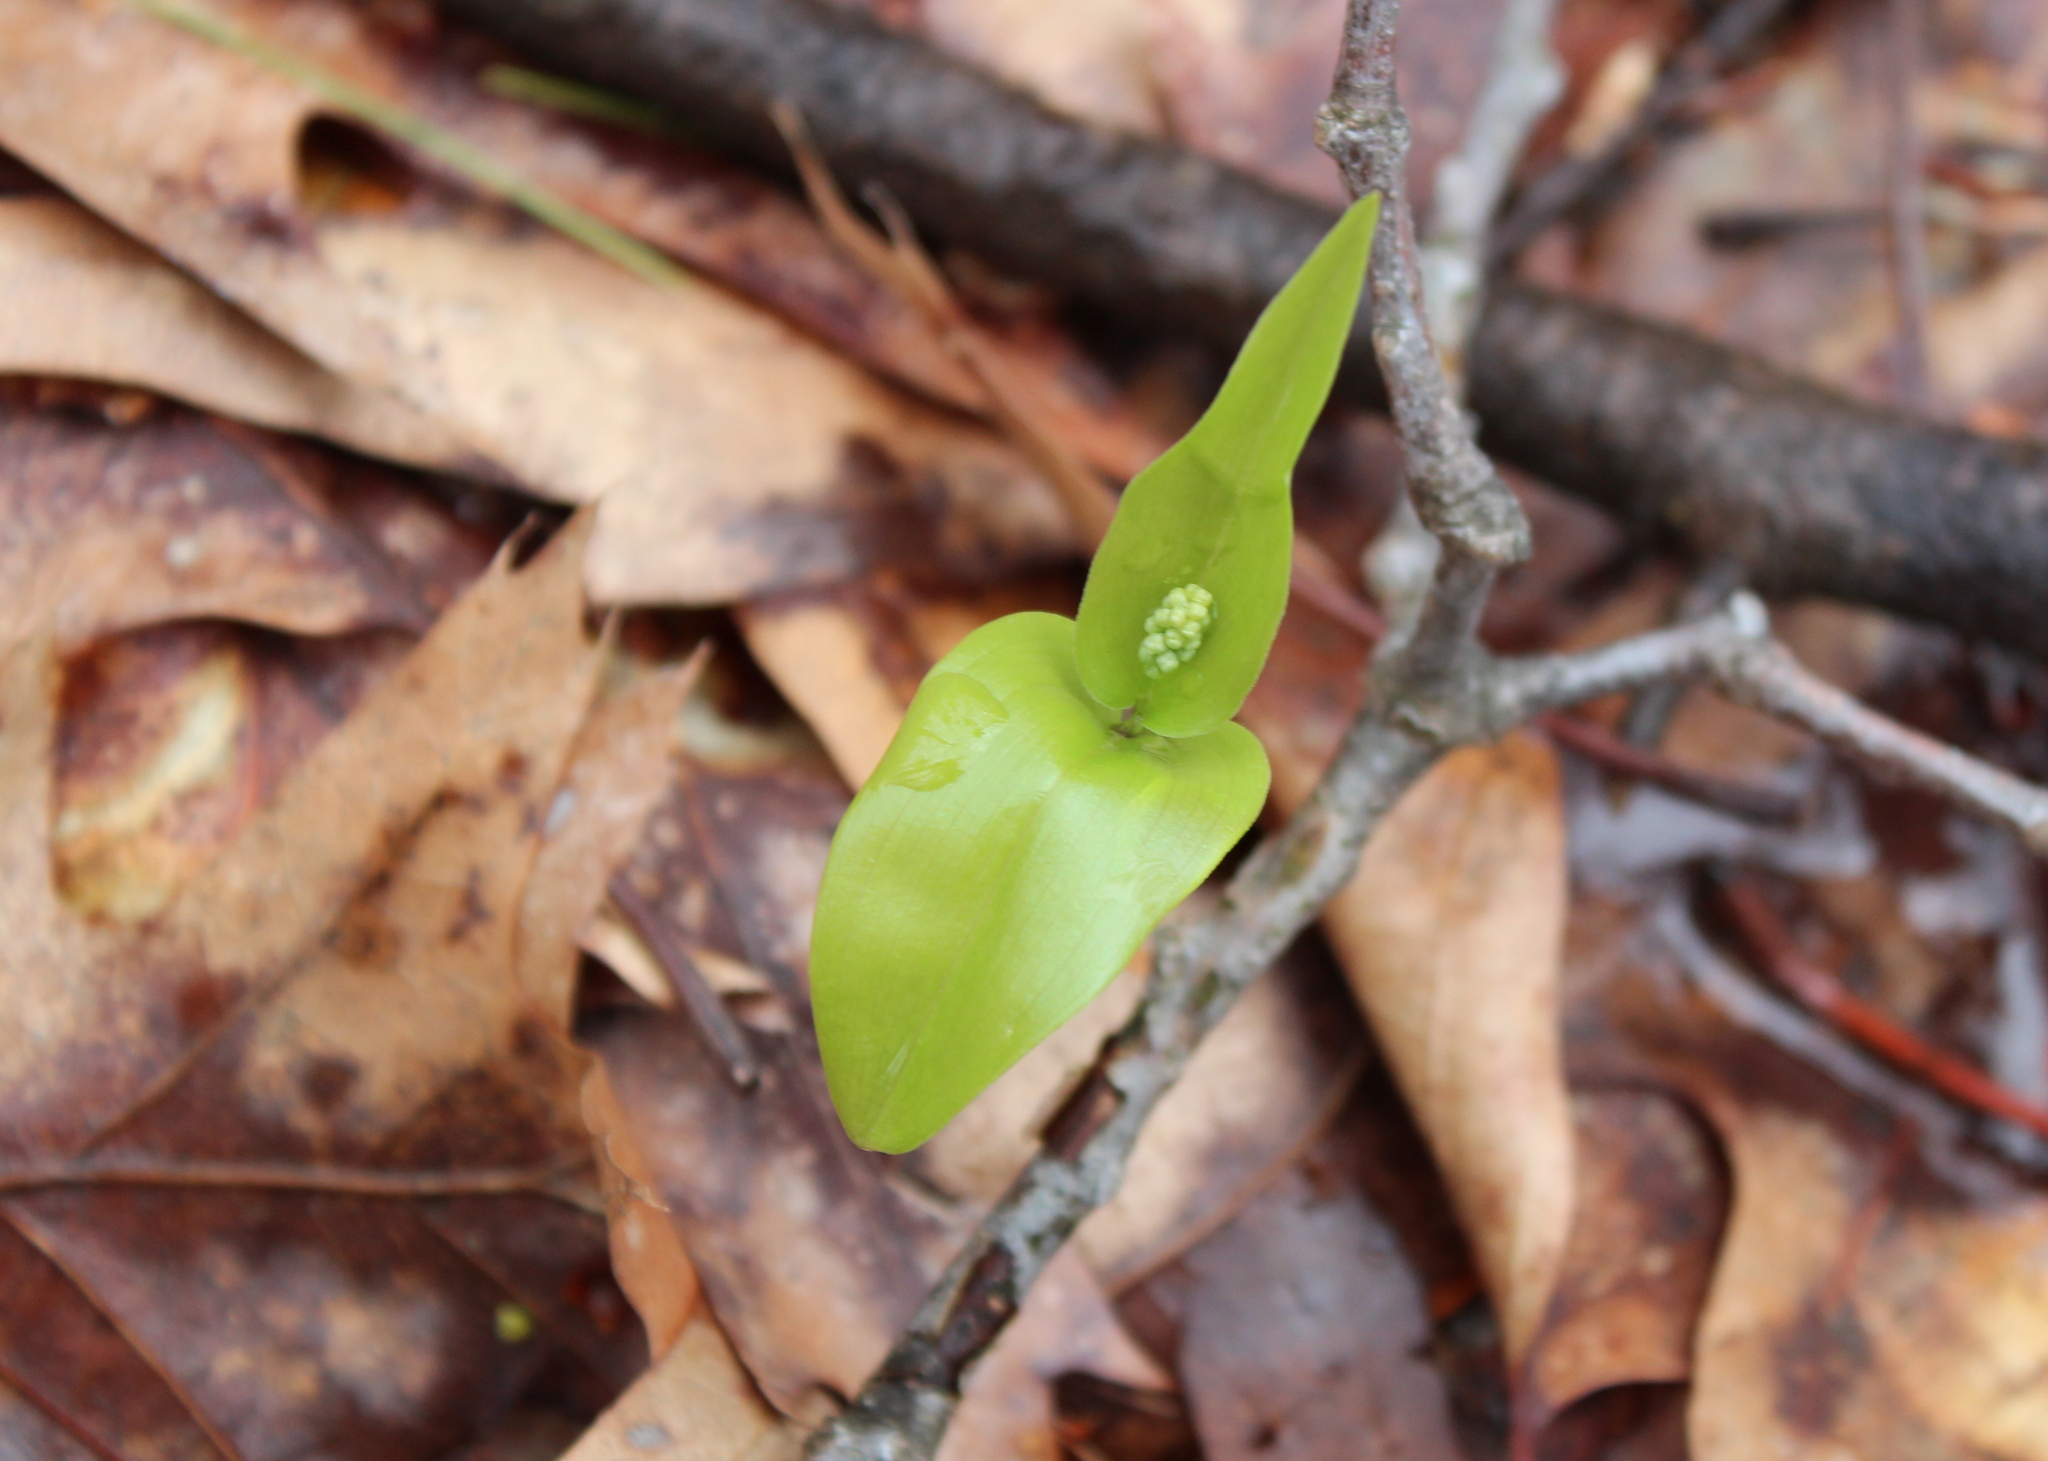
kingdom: Plantae
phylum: Tracheophyta
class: Liliopsida
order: Asparagales
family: Asparagaceae
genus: Maianthemum
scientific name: Maianthemum canadense
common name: False lily-of-the-valley
